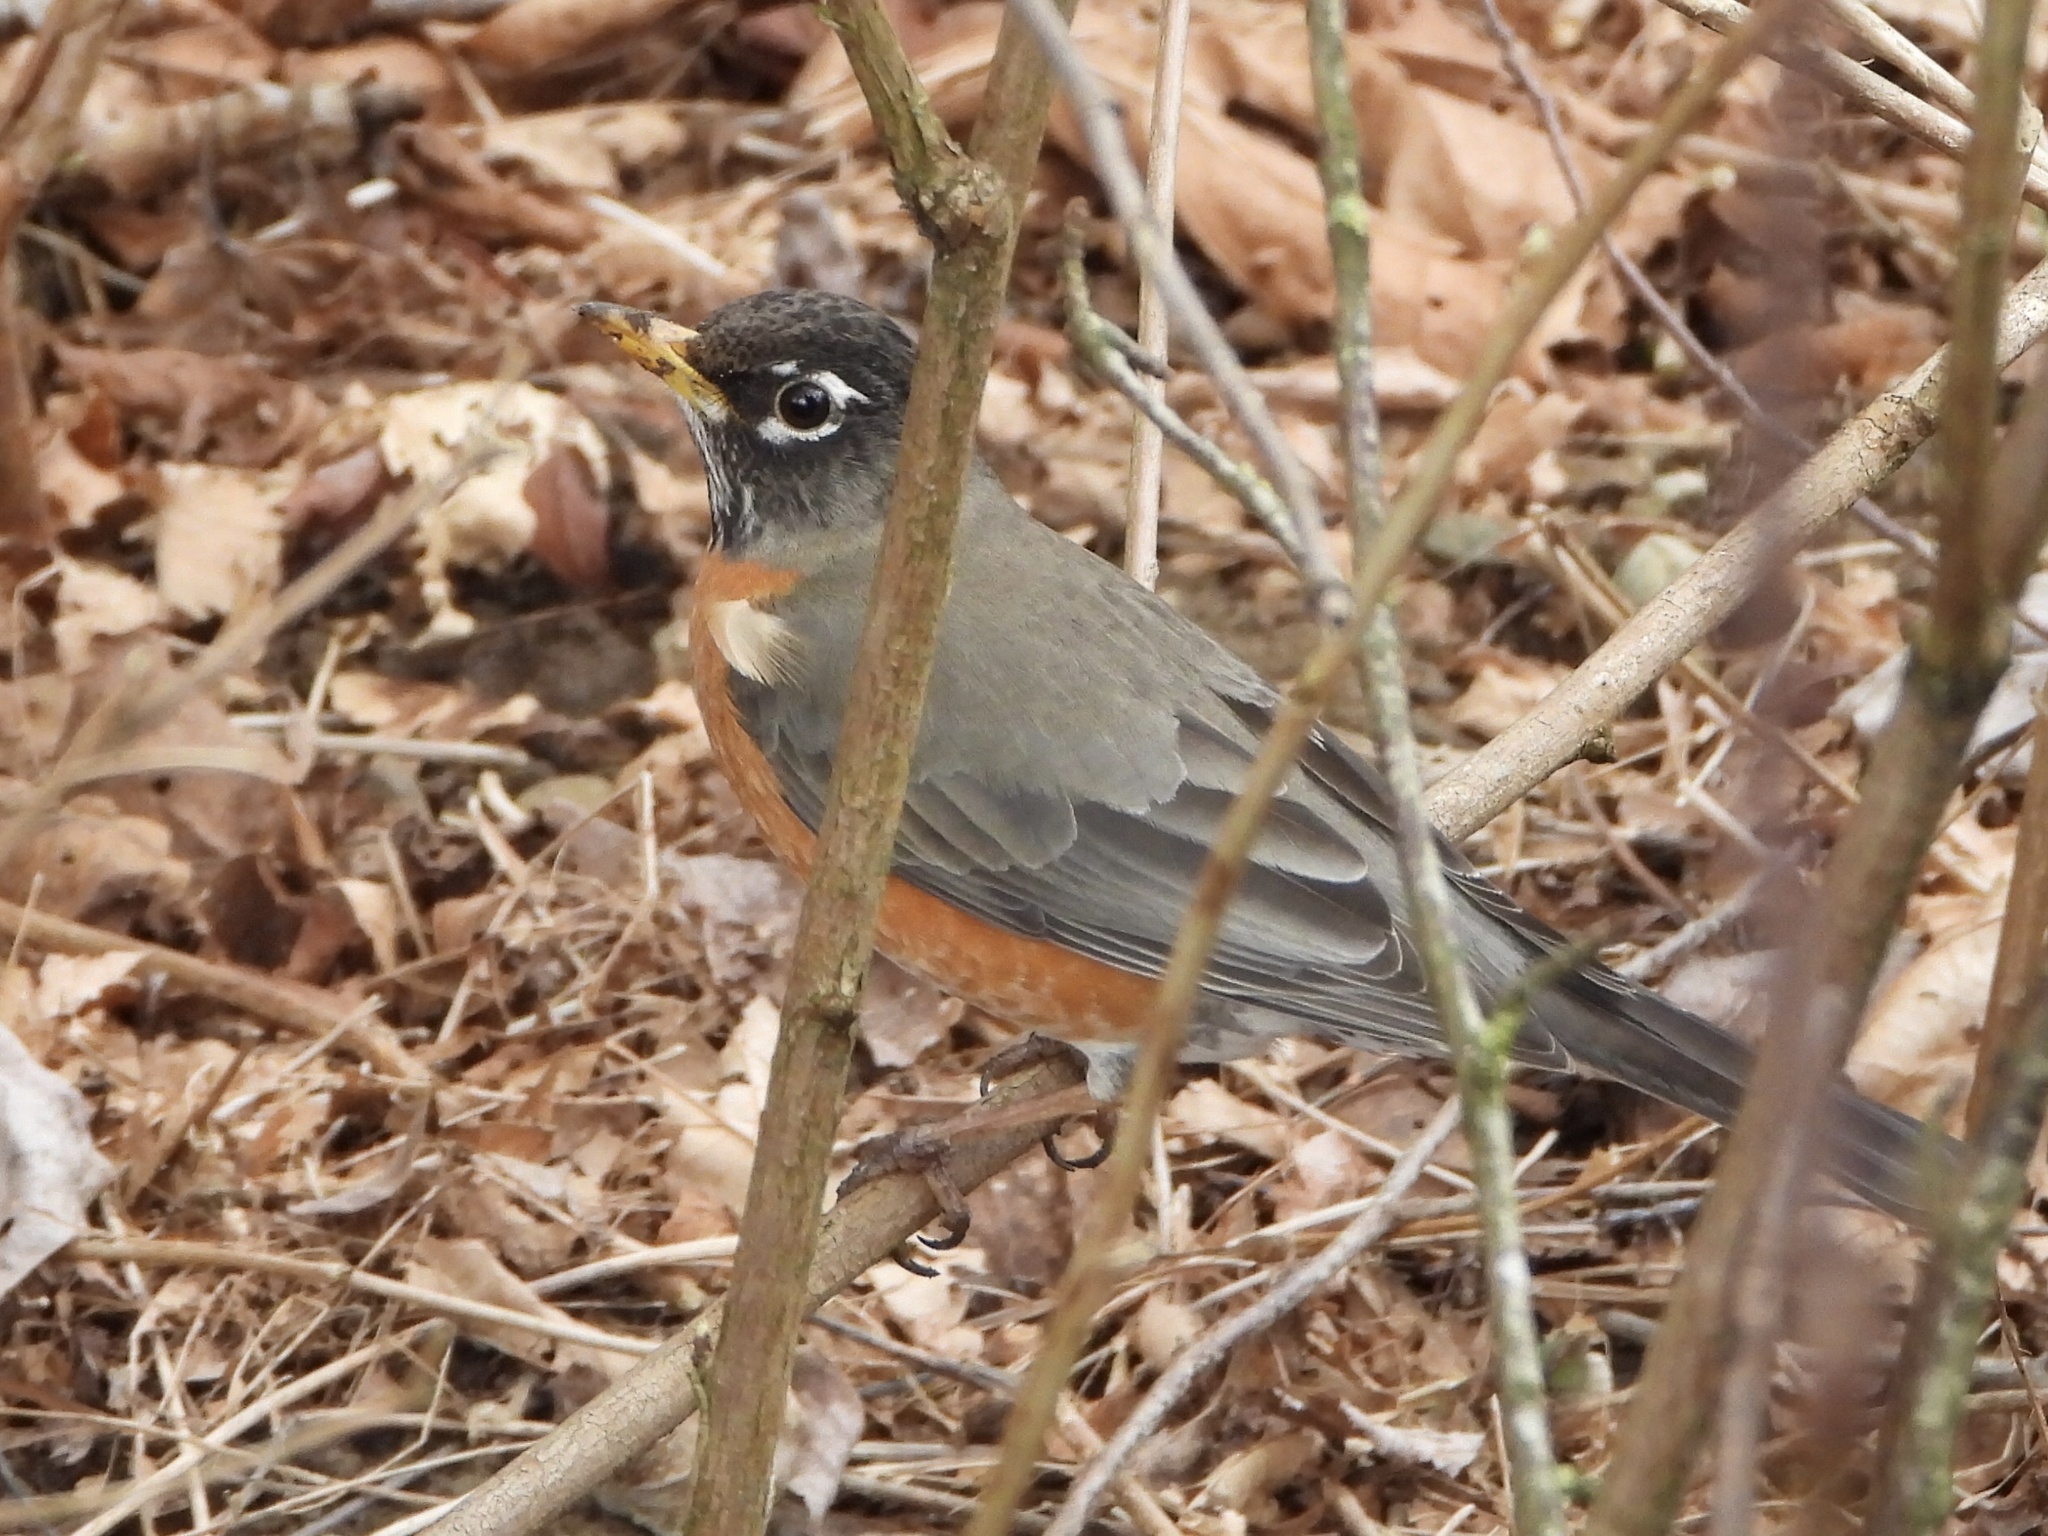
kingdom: Animalia
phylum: Chordata
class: Aves
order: Passeriformes
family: Turdidae
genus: Turdus
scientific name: Turdus migratorius
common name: American robin
